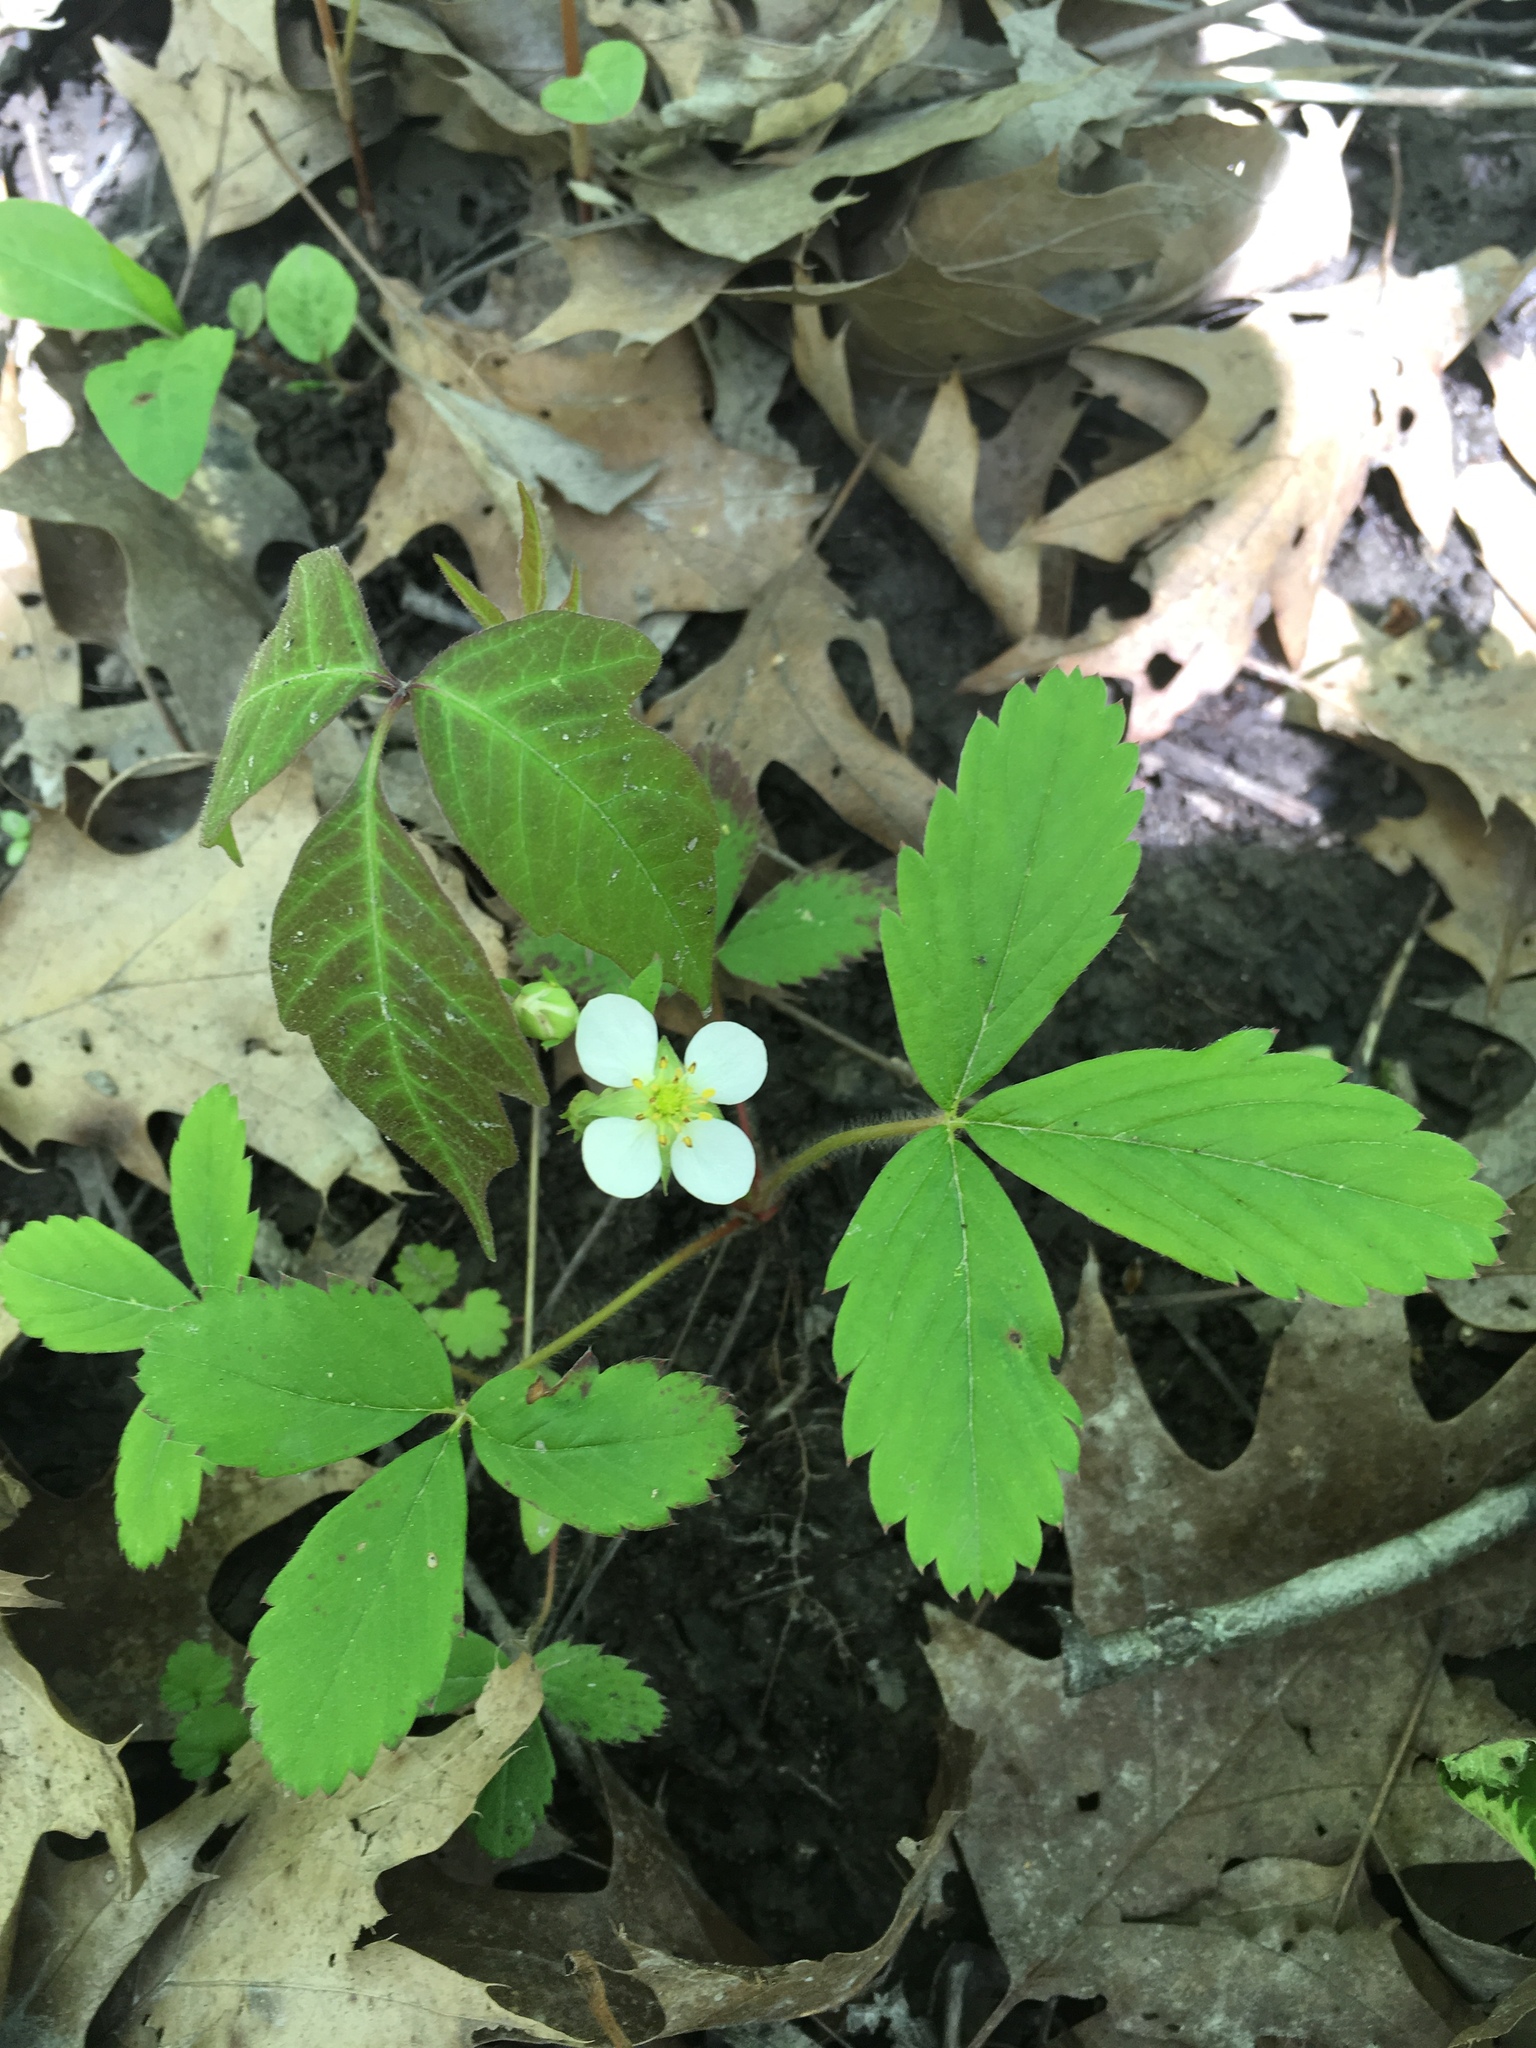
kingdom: Plantae
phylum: Tracheophyta
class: Magnoliopsida
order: Rosales
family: Rosaceae
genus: Fragaria
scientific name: Fragaria virginiana
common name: Thickleaved wild strawberry
